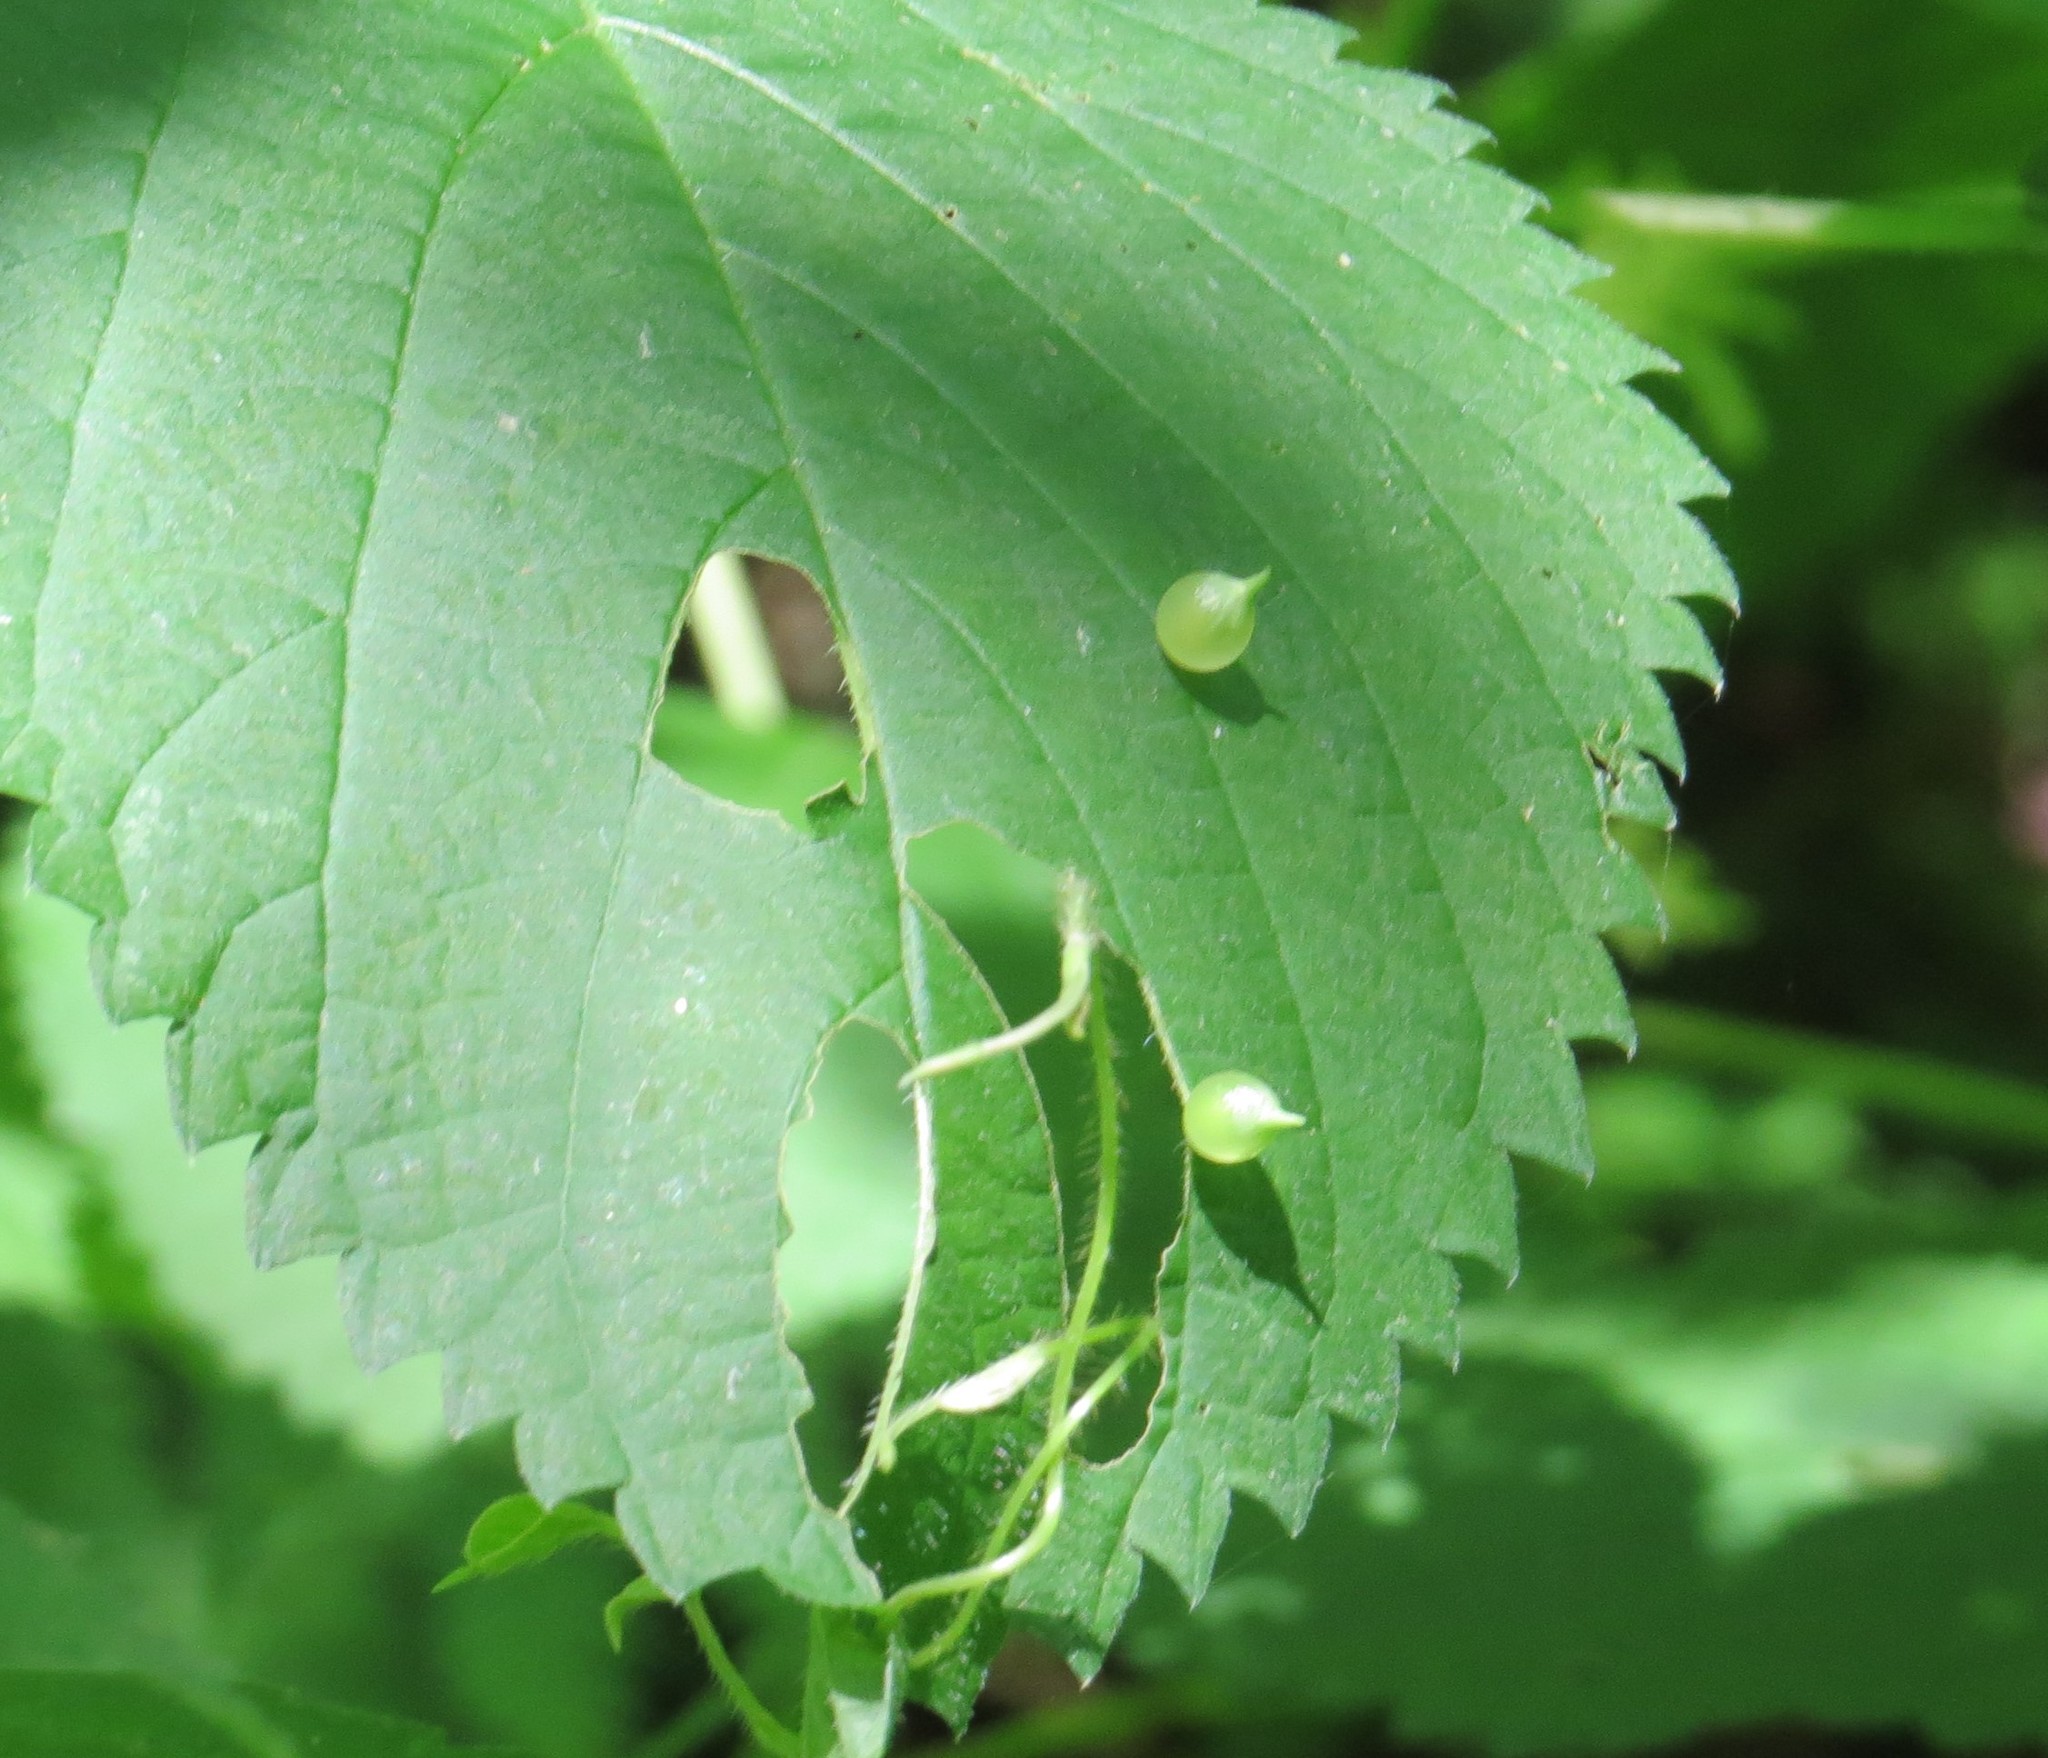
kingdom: Animalia
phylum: Arthropoda
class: Insecta
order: Diptera
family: Cecidomyiidae
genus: Dasineura
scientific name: Dasineura investita
